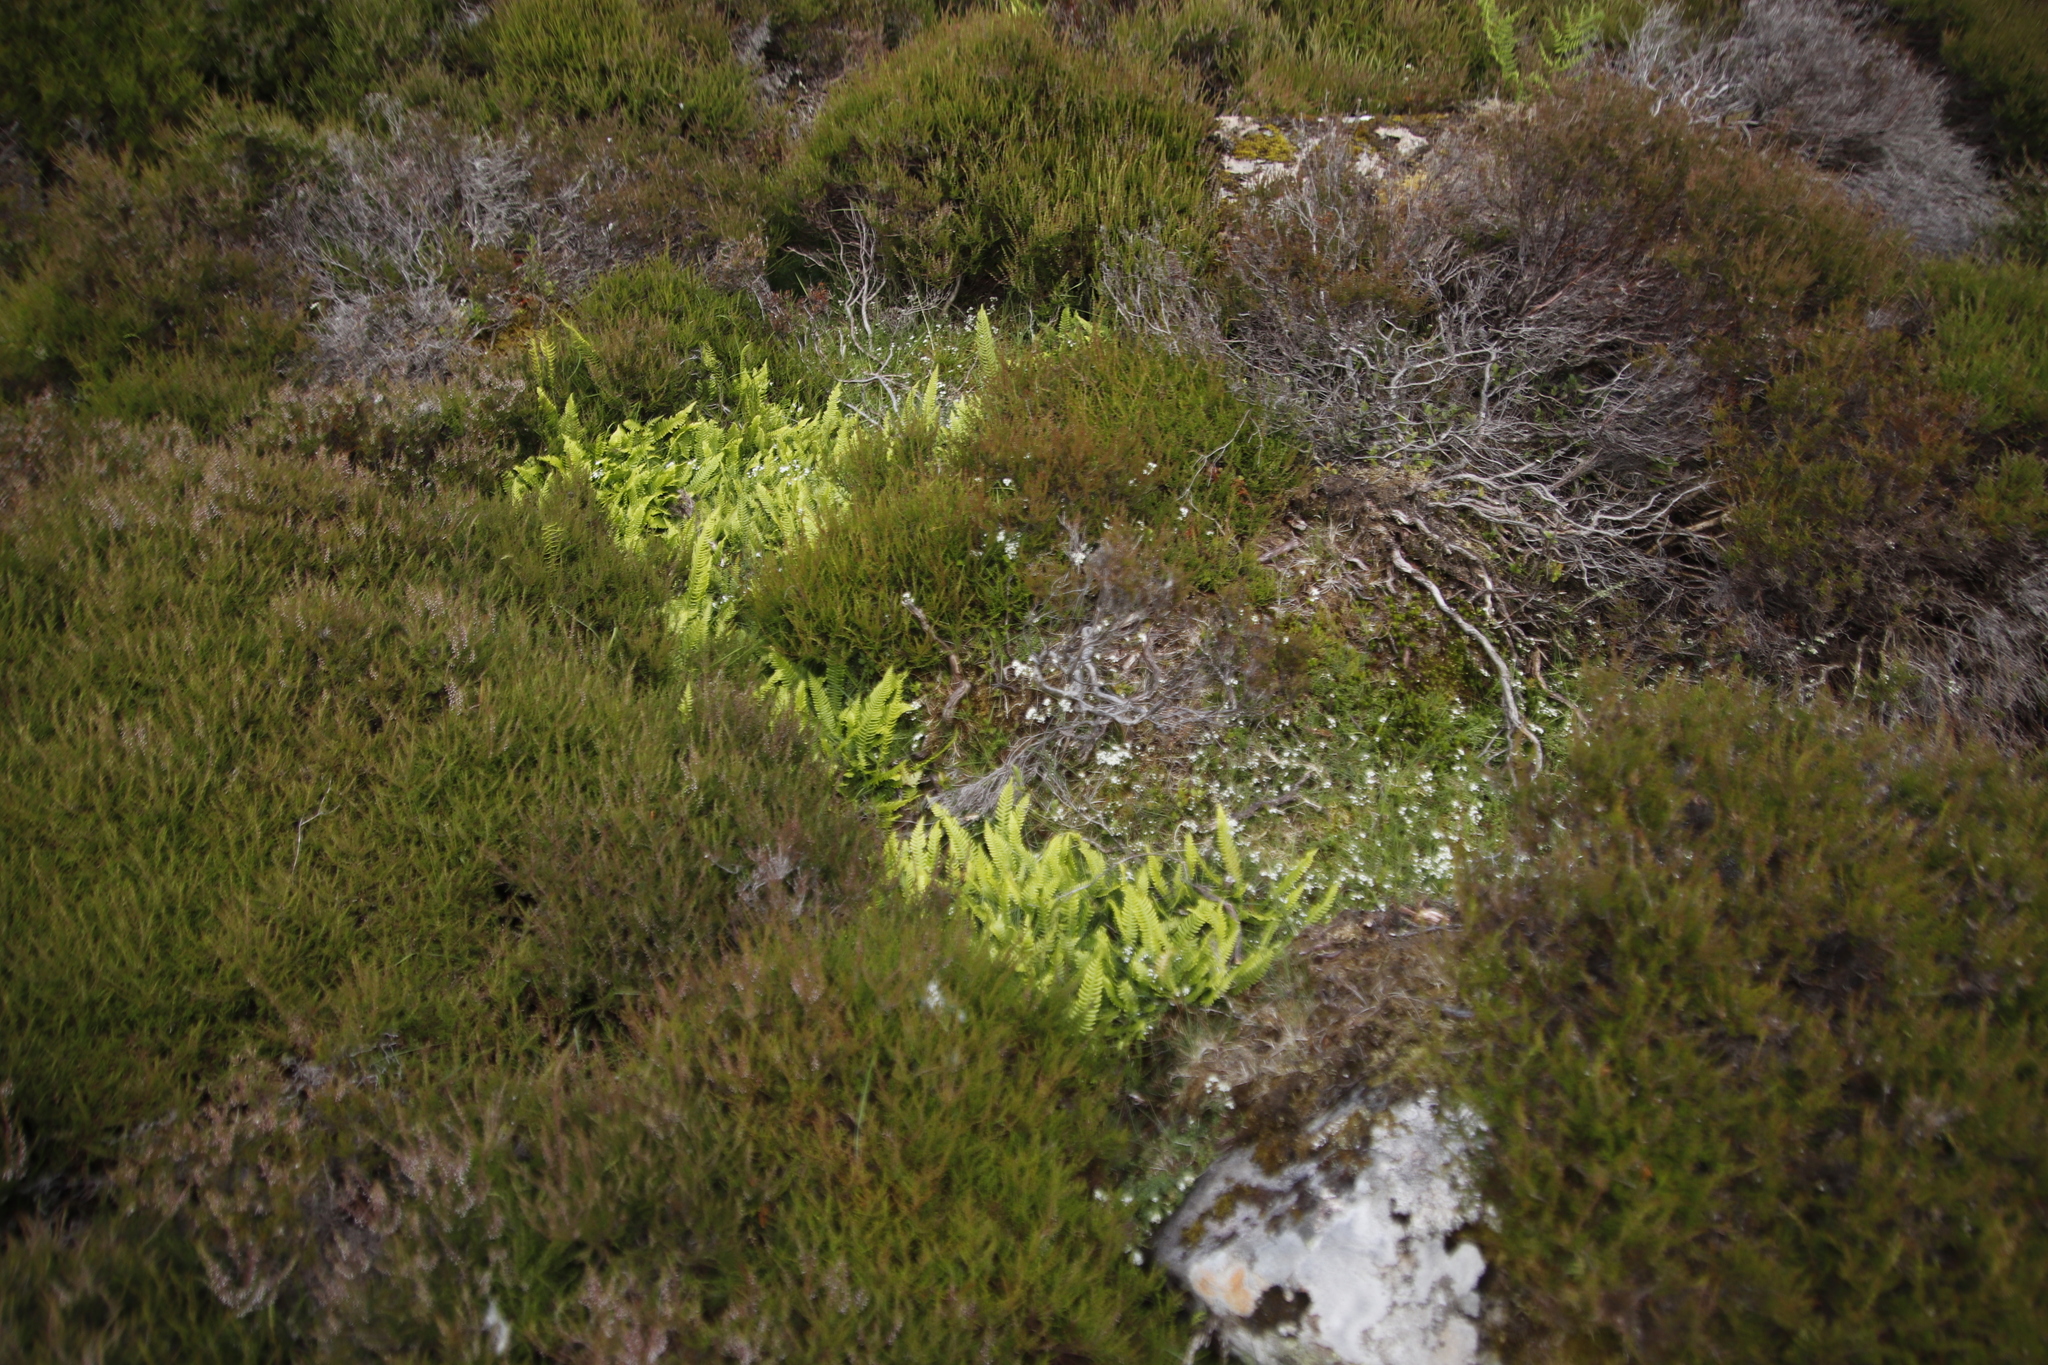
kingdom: Plantae
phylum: Tracheophyta
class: Polypodiopsida
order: Polypodiales
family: Blechnaceae
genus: Struthiopteris
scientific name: Struthiopteris spicant
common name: Deer fern
